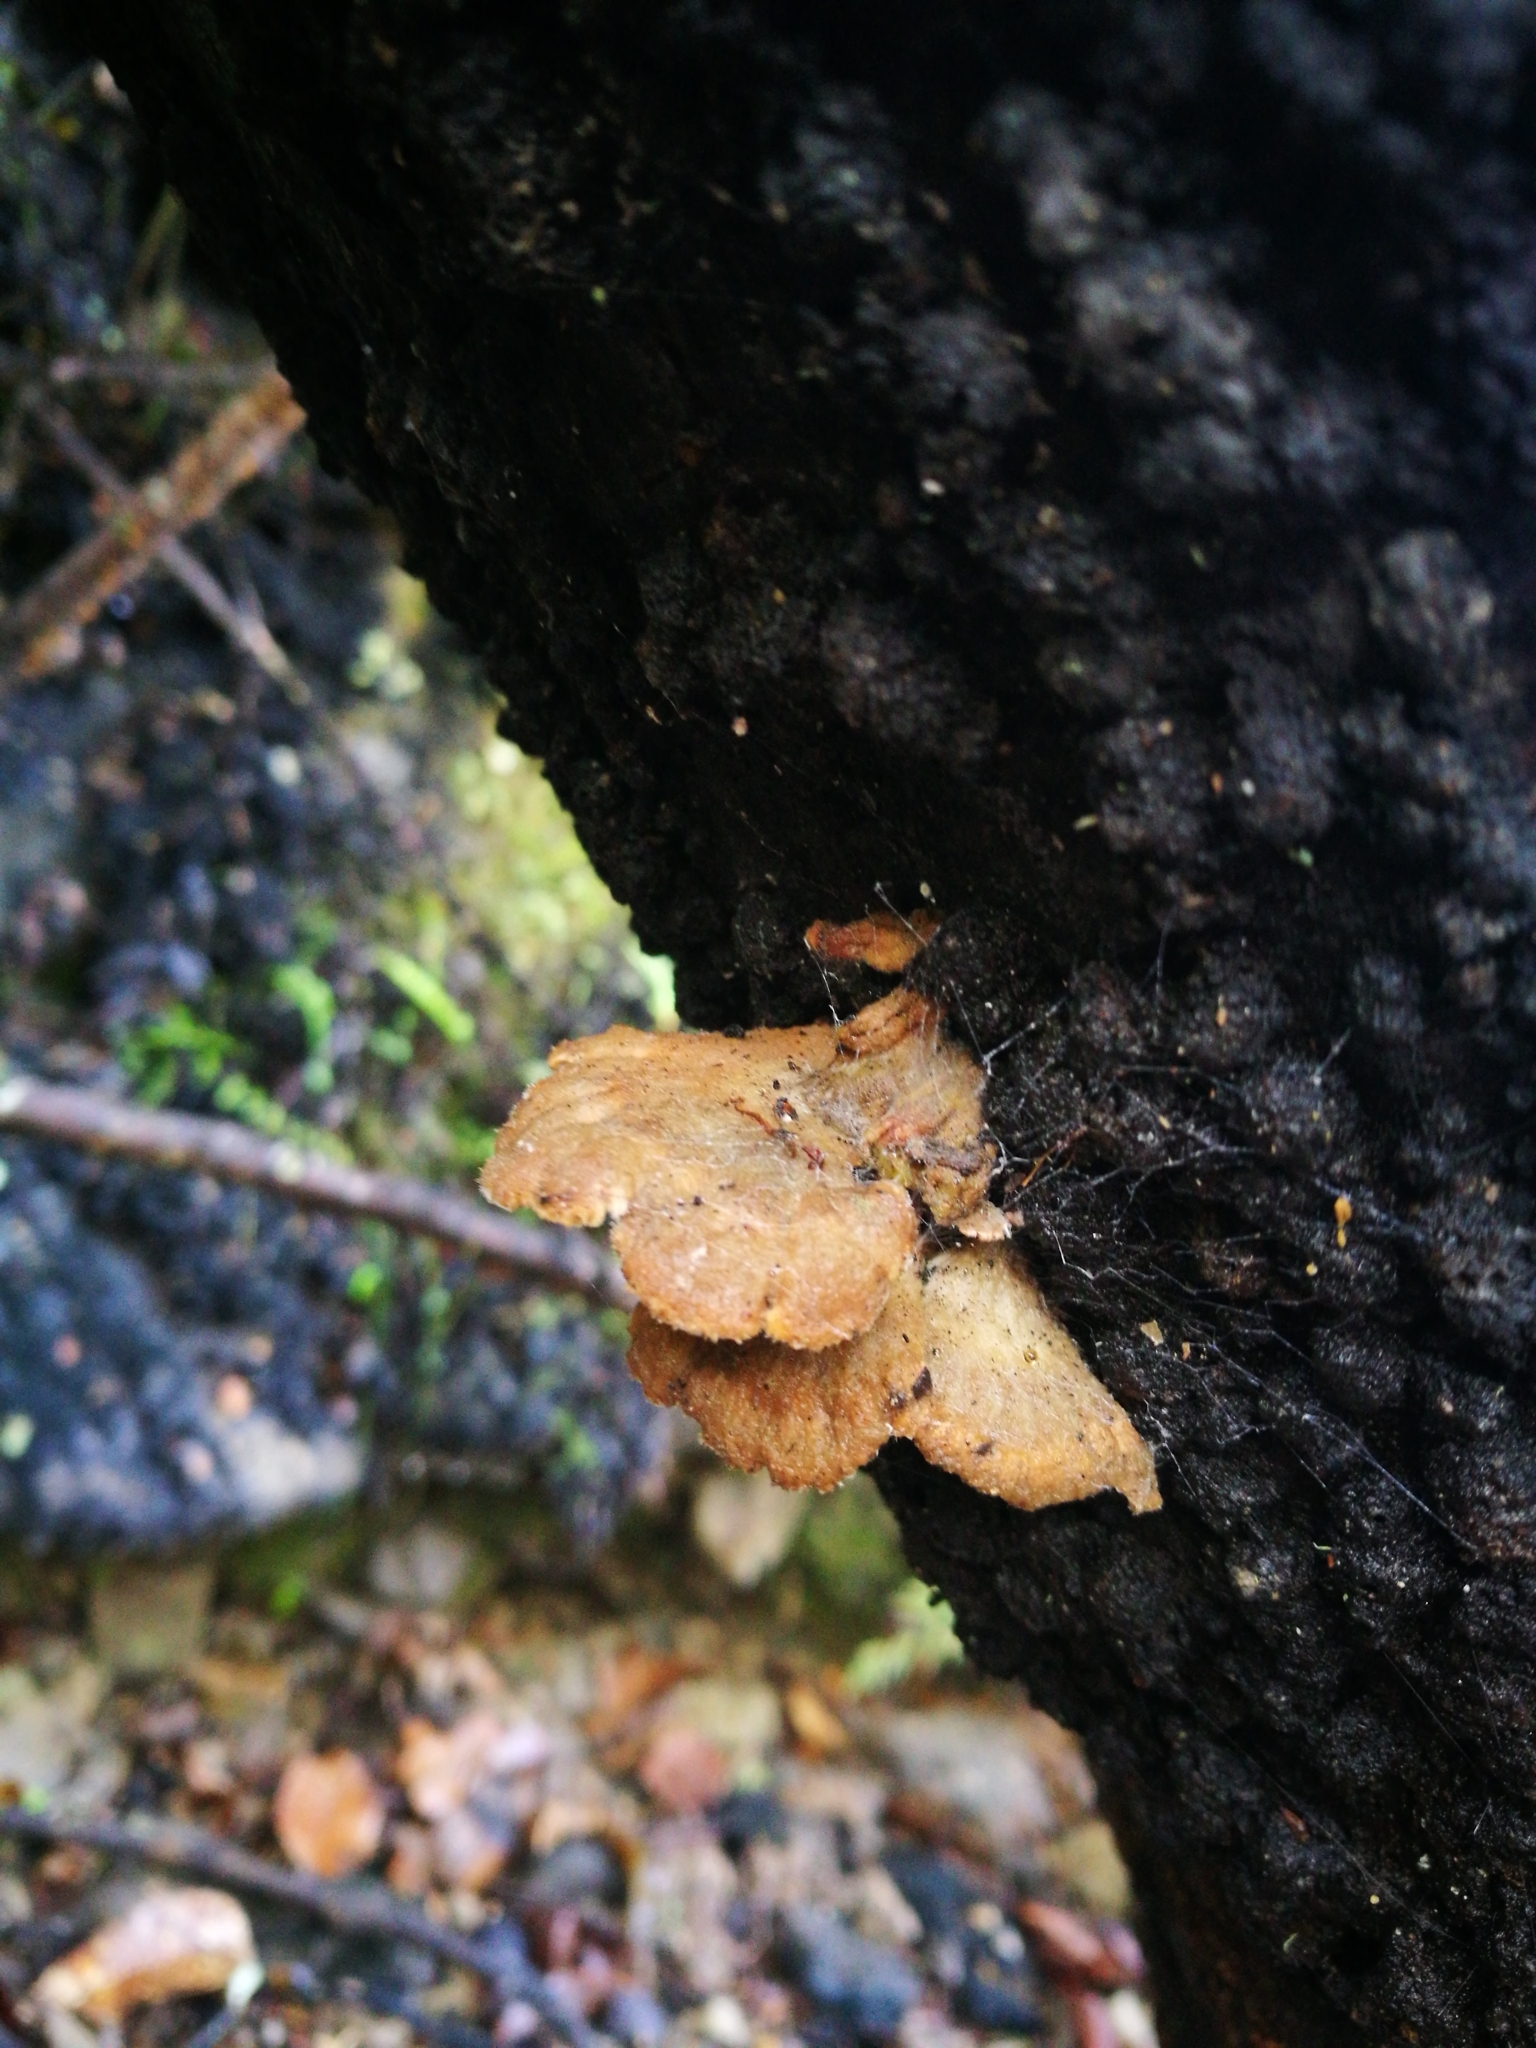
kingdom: Fungi
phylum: Basidiomycota
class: Agaricomycetes
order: Agaricales
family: Schizophyllaceae
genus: Schizophyllum
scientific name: Schizophyllum commune
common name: Common porecrust
